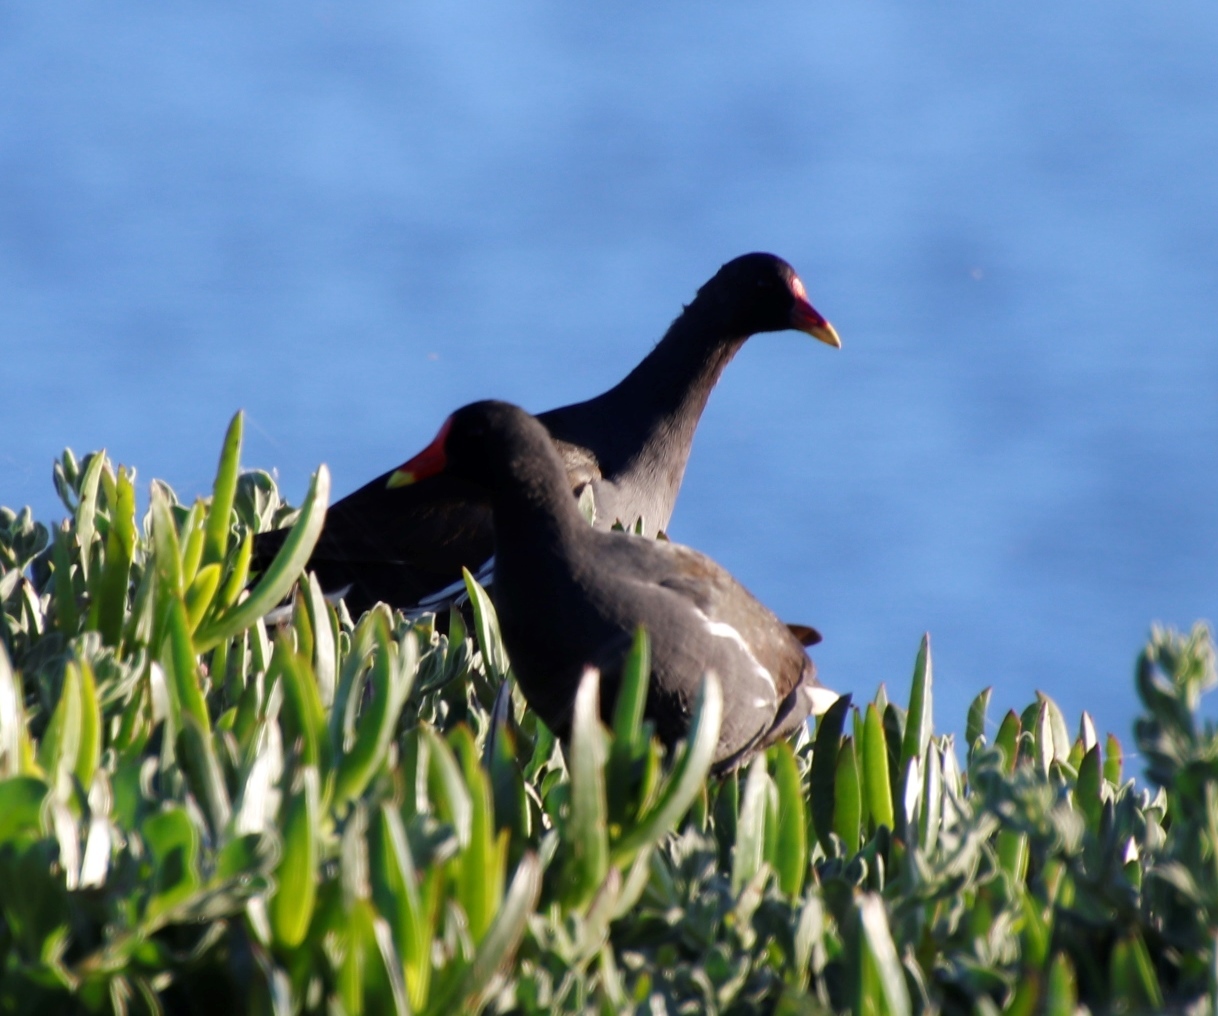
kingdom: Animalia
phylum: Chordata
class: Aves
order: Gruiformes
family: Rallidae
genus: Gallinula
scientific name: Gallinula chloropus
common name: Common moorhen
